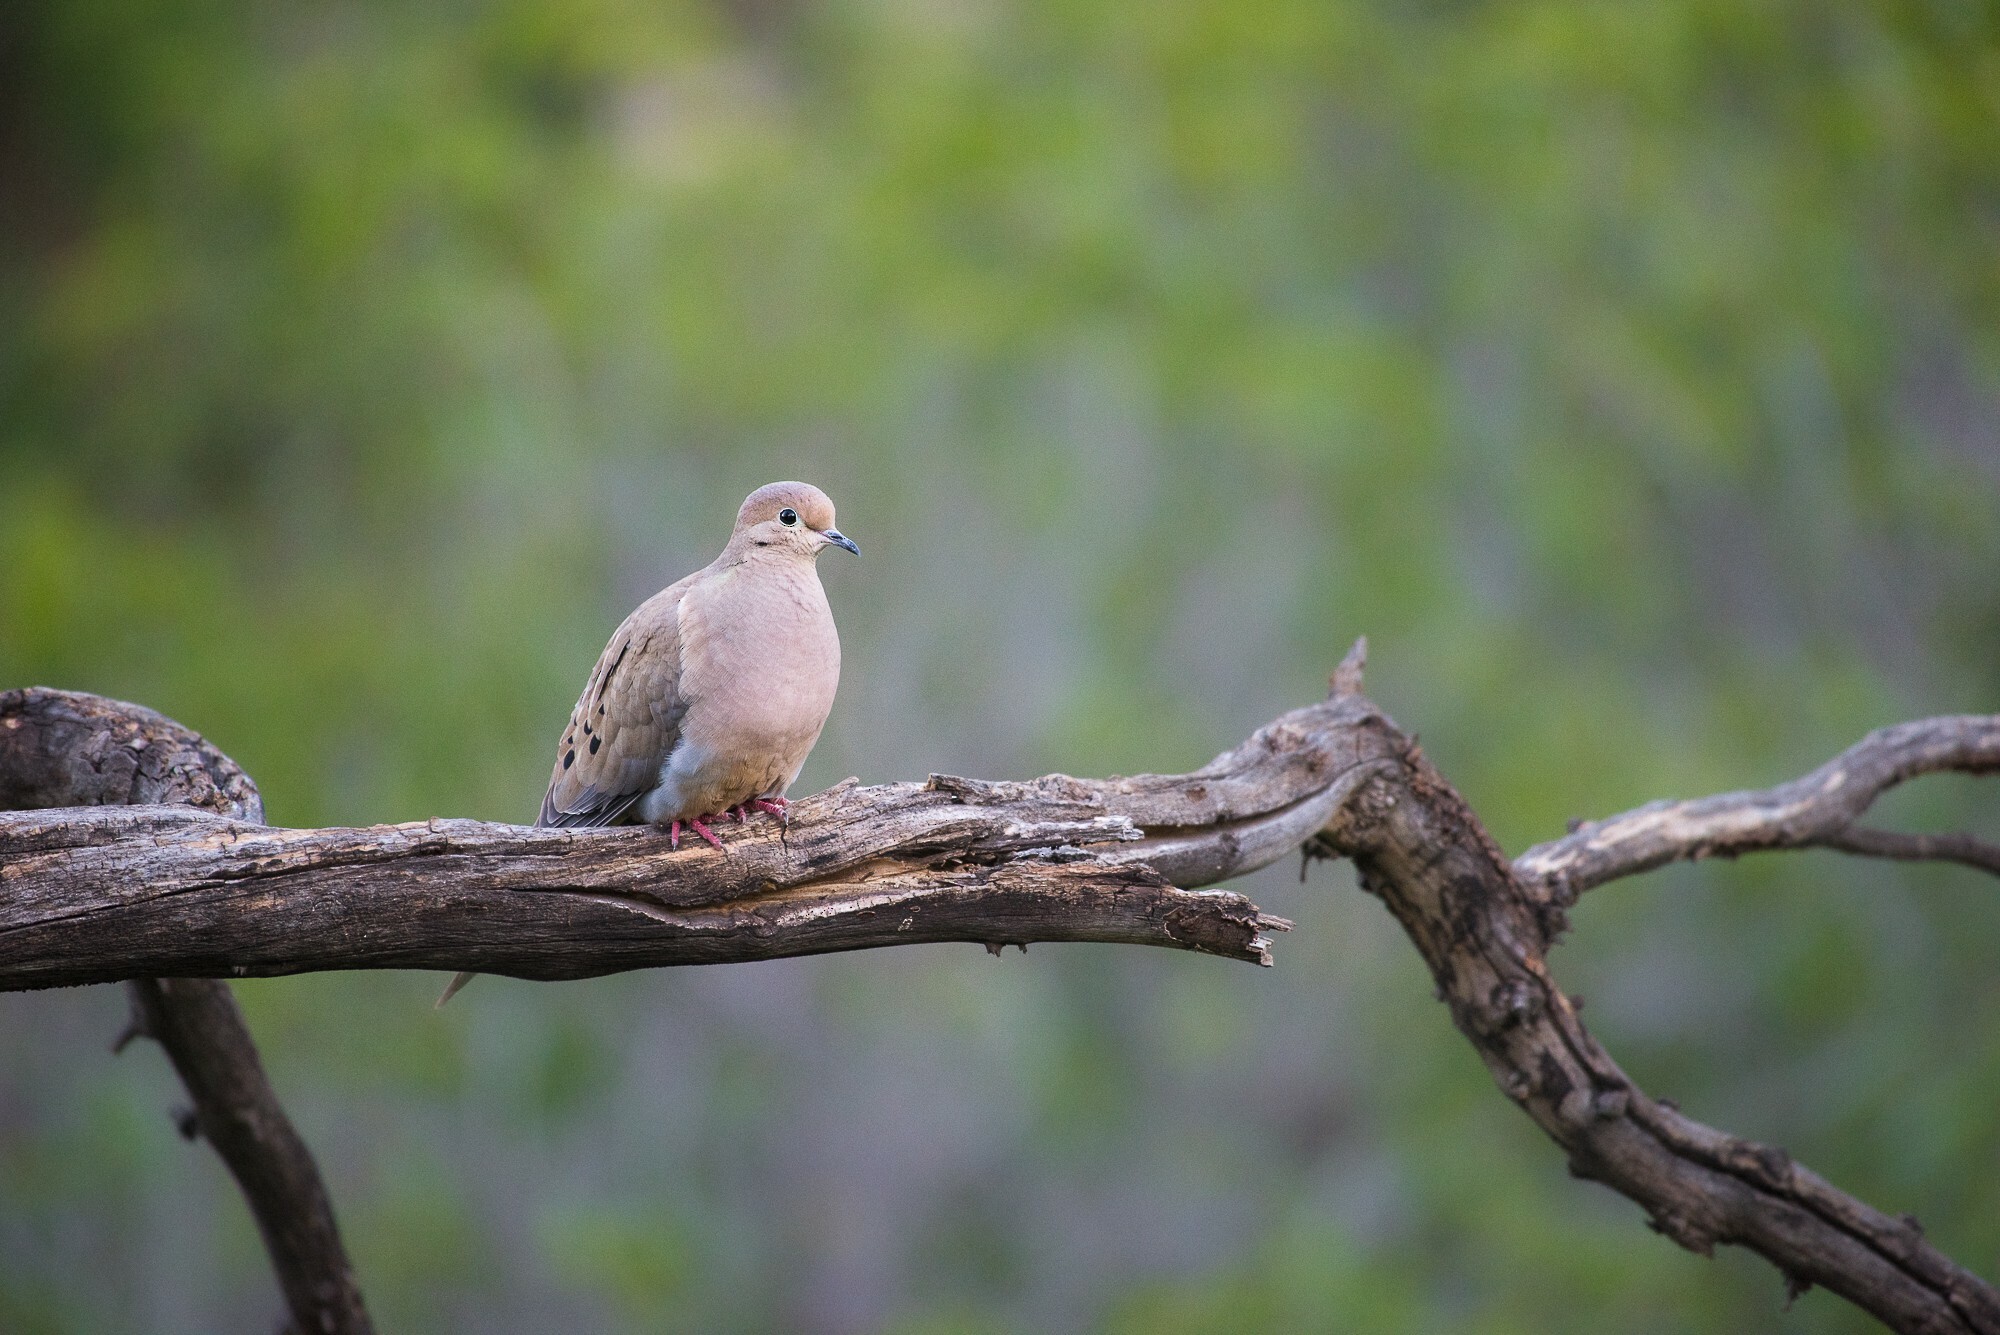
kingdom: Animalia
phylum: Chordata
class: Aves
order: Columbiformes
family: Columbidae
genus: Zenaida
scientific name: Zenaida macroura
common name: Mourning dove
